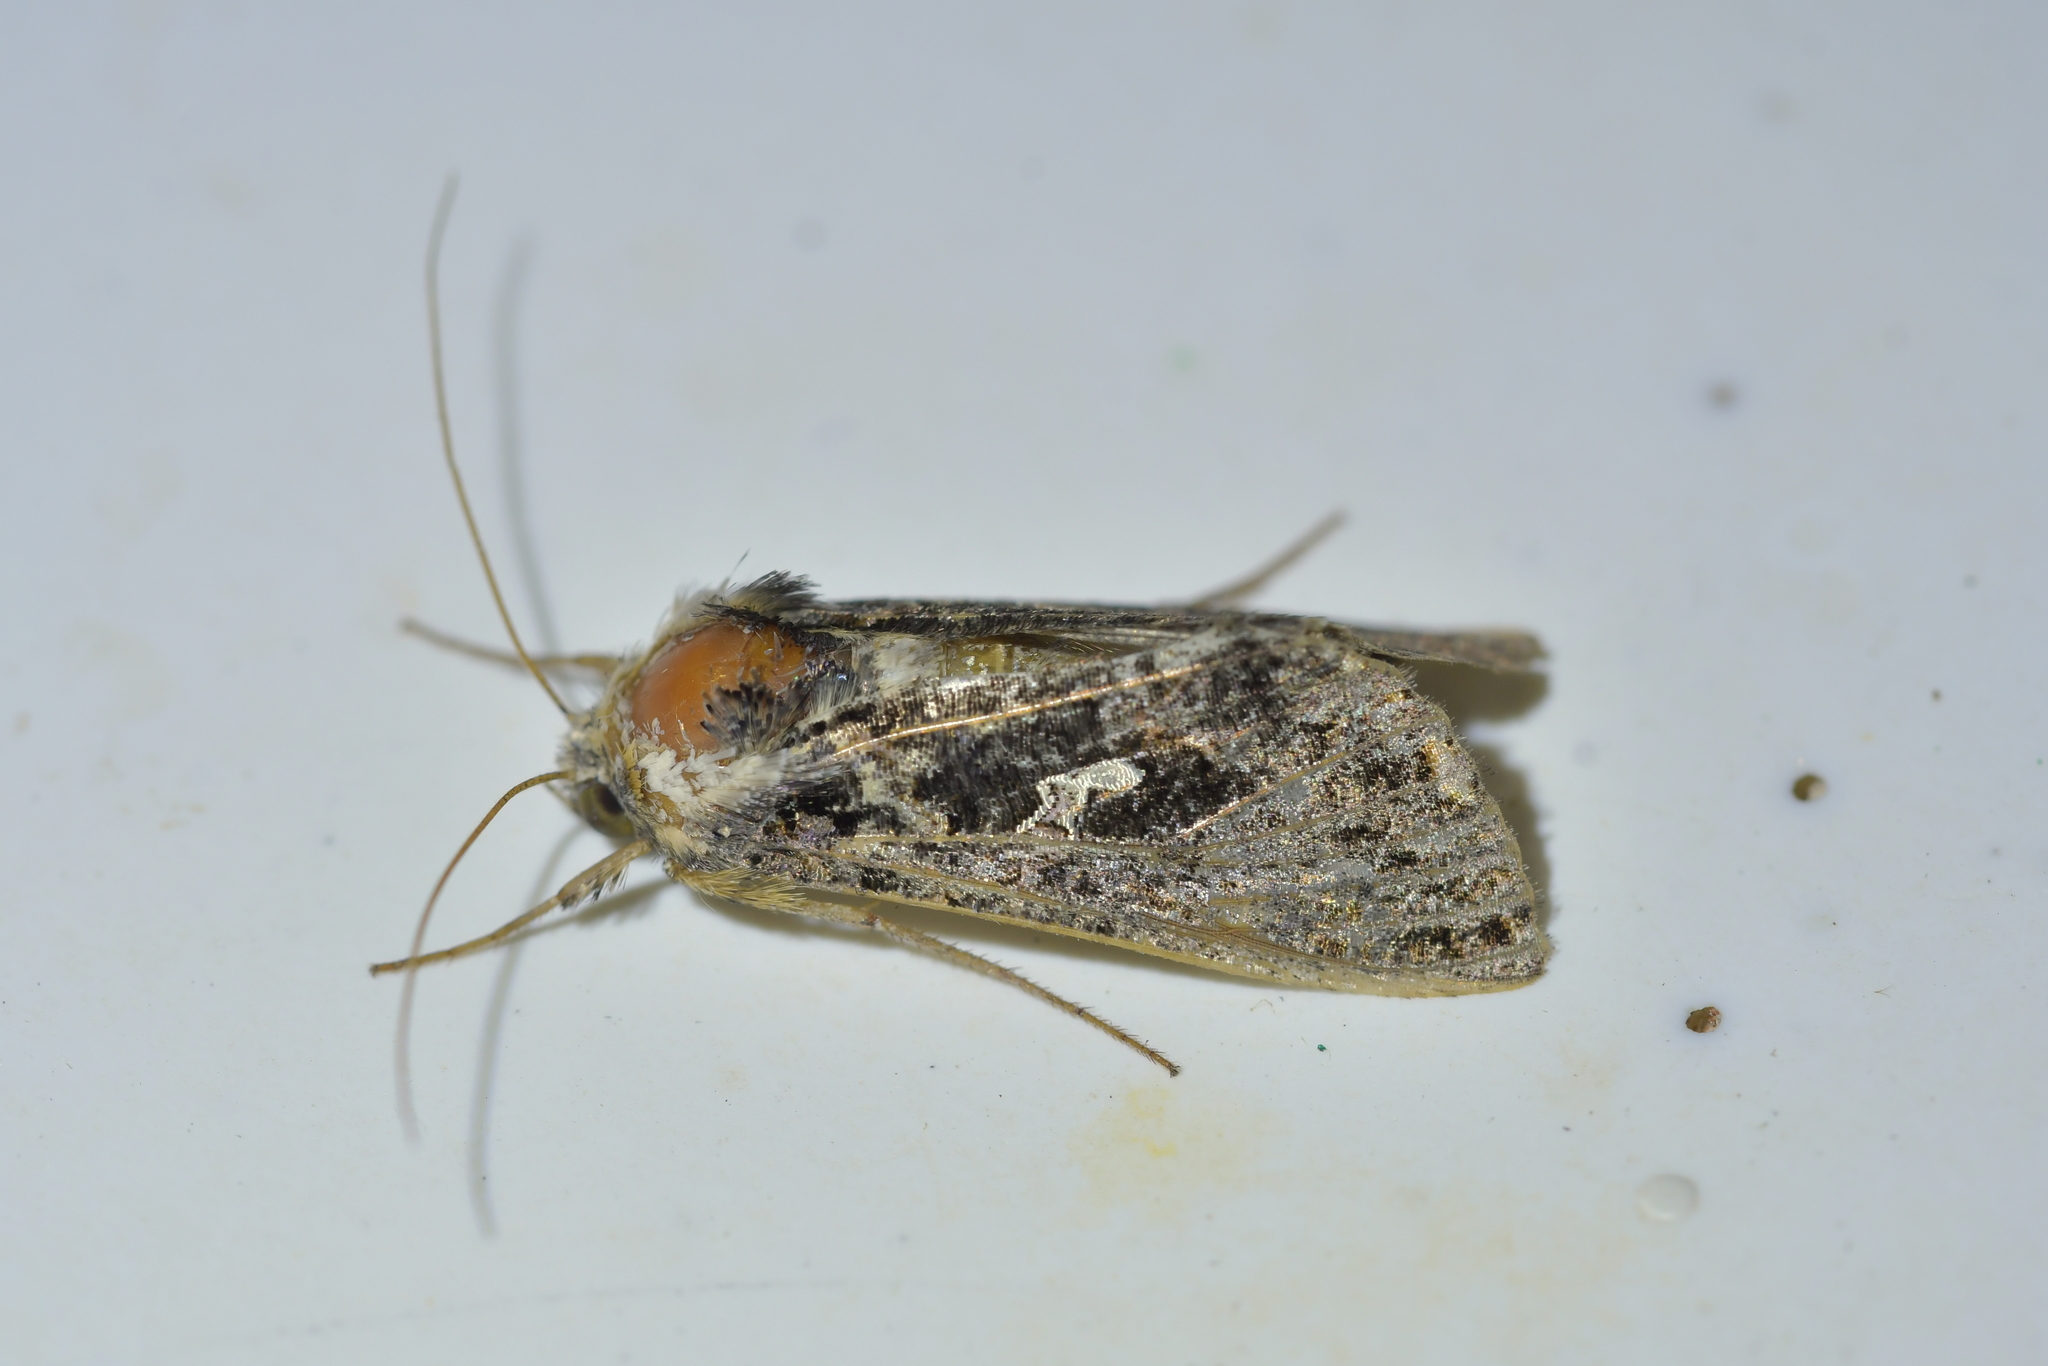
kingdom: Animalia
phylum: Arthropoda
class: Insecta
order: Lepidoptera
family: Noctuidae
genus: Ctenoplusia
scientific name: Ctenoplusia limbirena
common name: Scar bank gem
